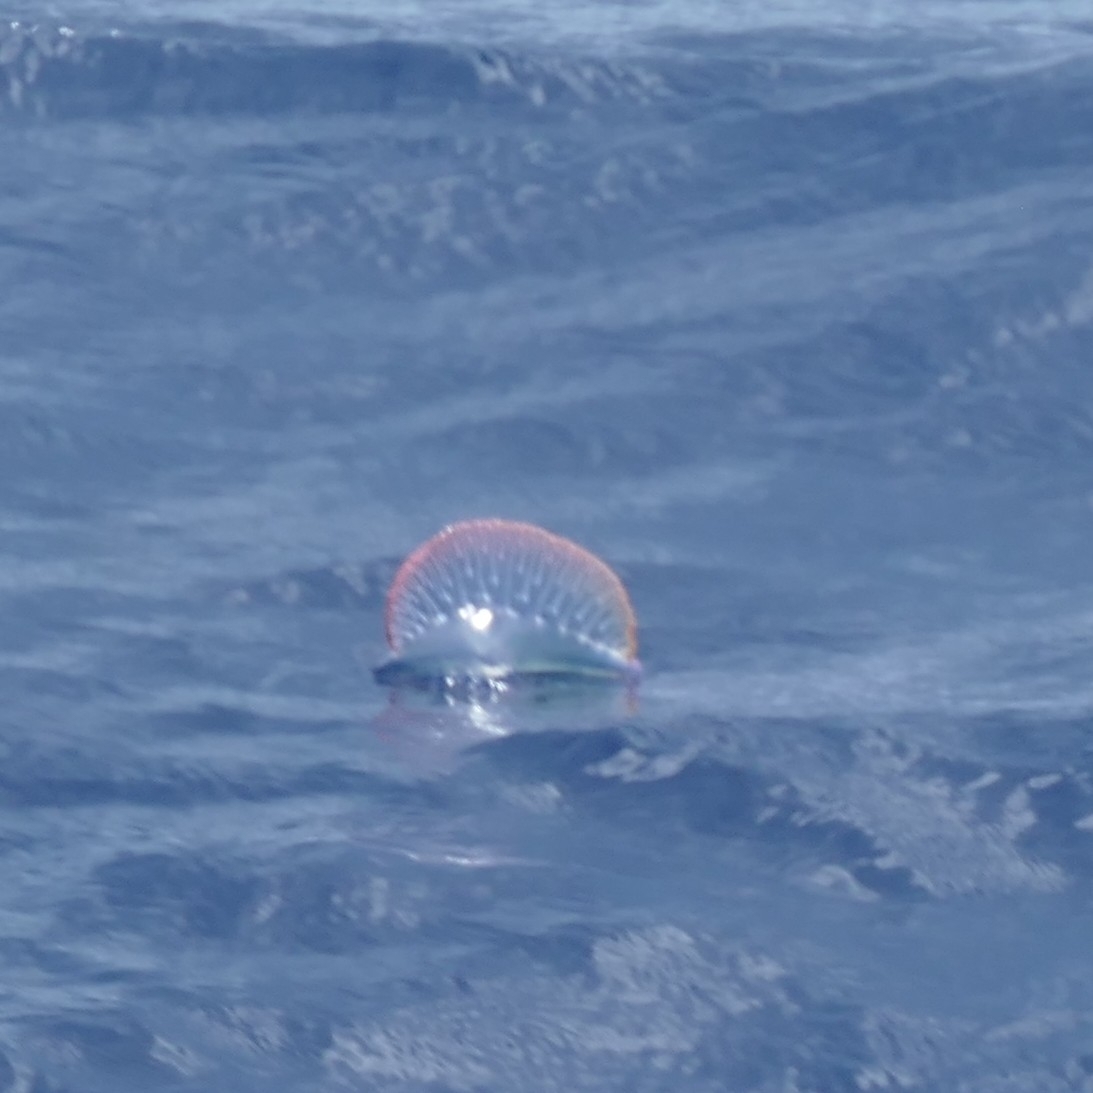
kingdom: Animalia
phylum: Cnidaria
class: Hydrozoa
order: Siphonophorae
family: Physaliidae
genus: Physalia
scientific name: Physalia physalis
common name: Portuguese man-of-war
